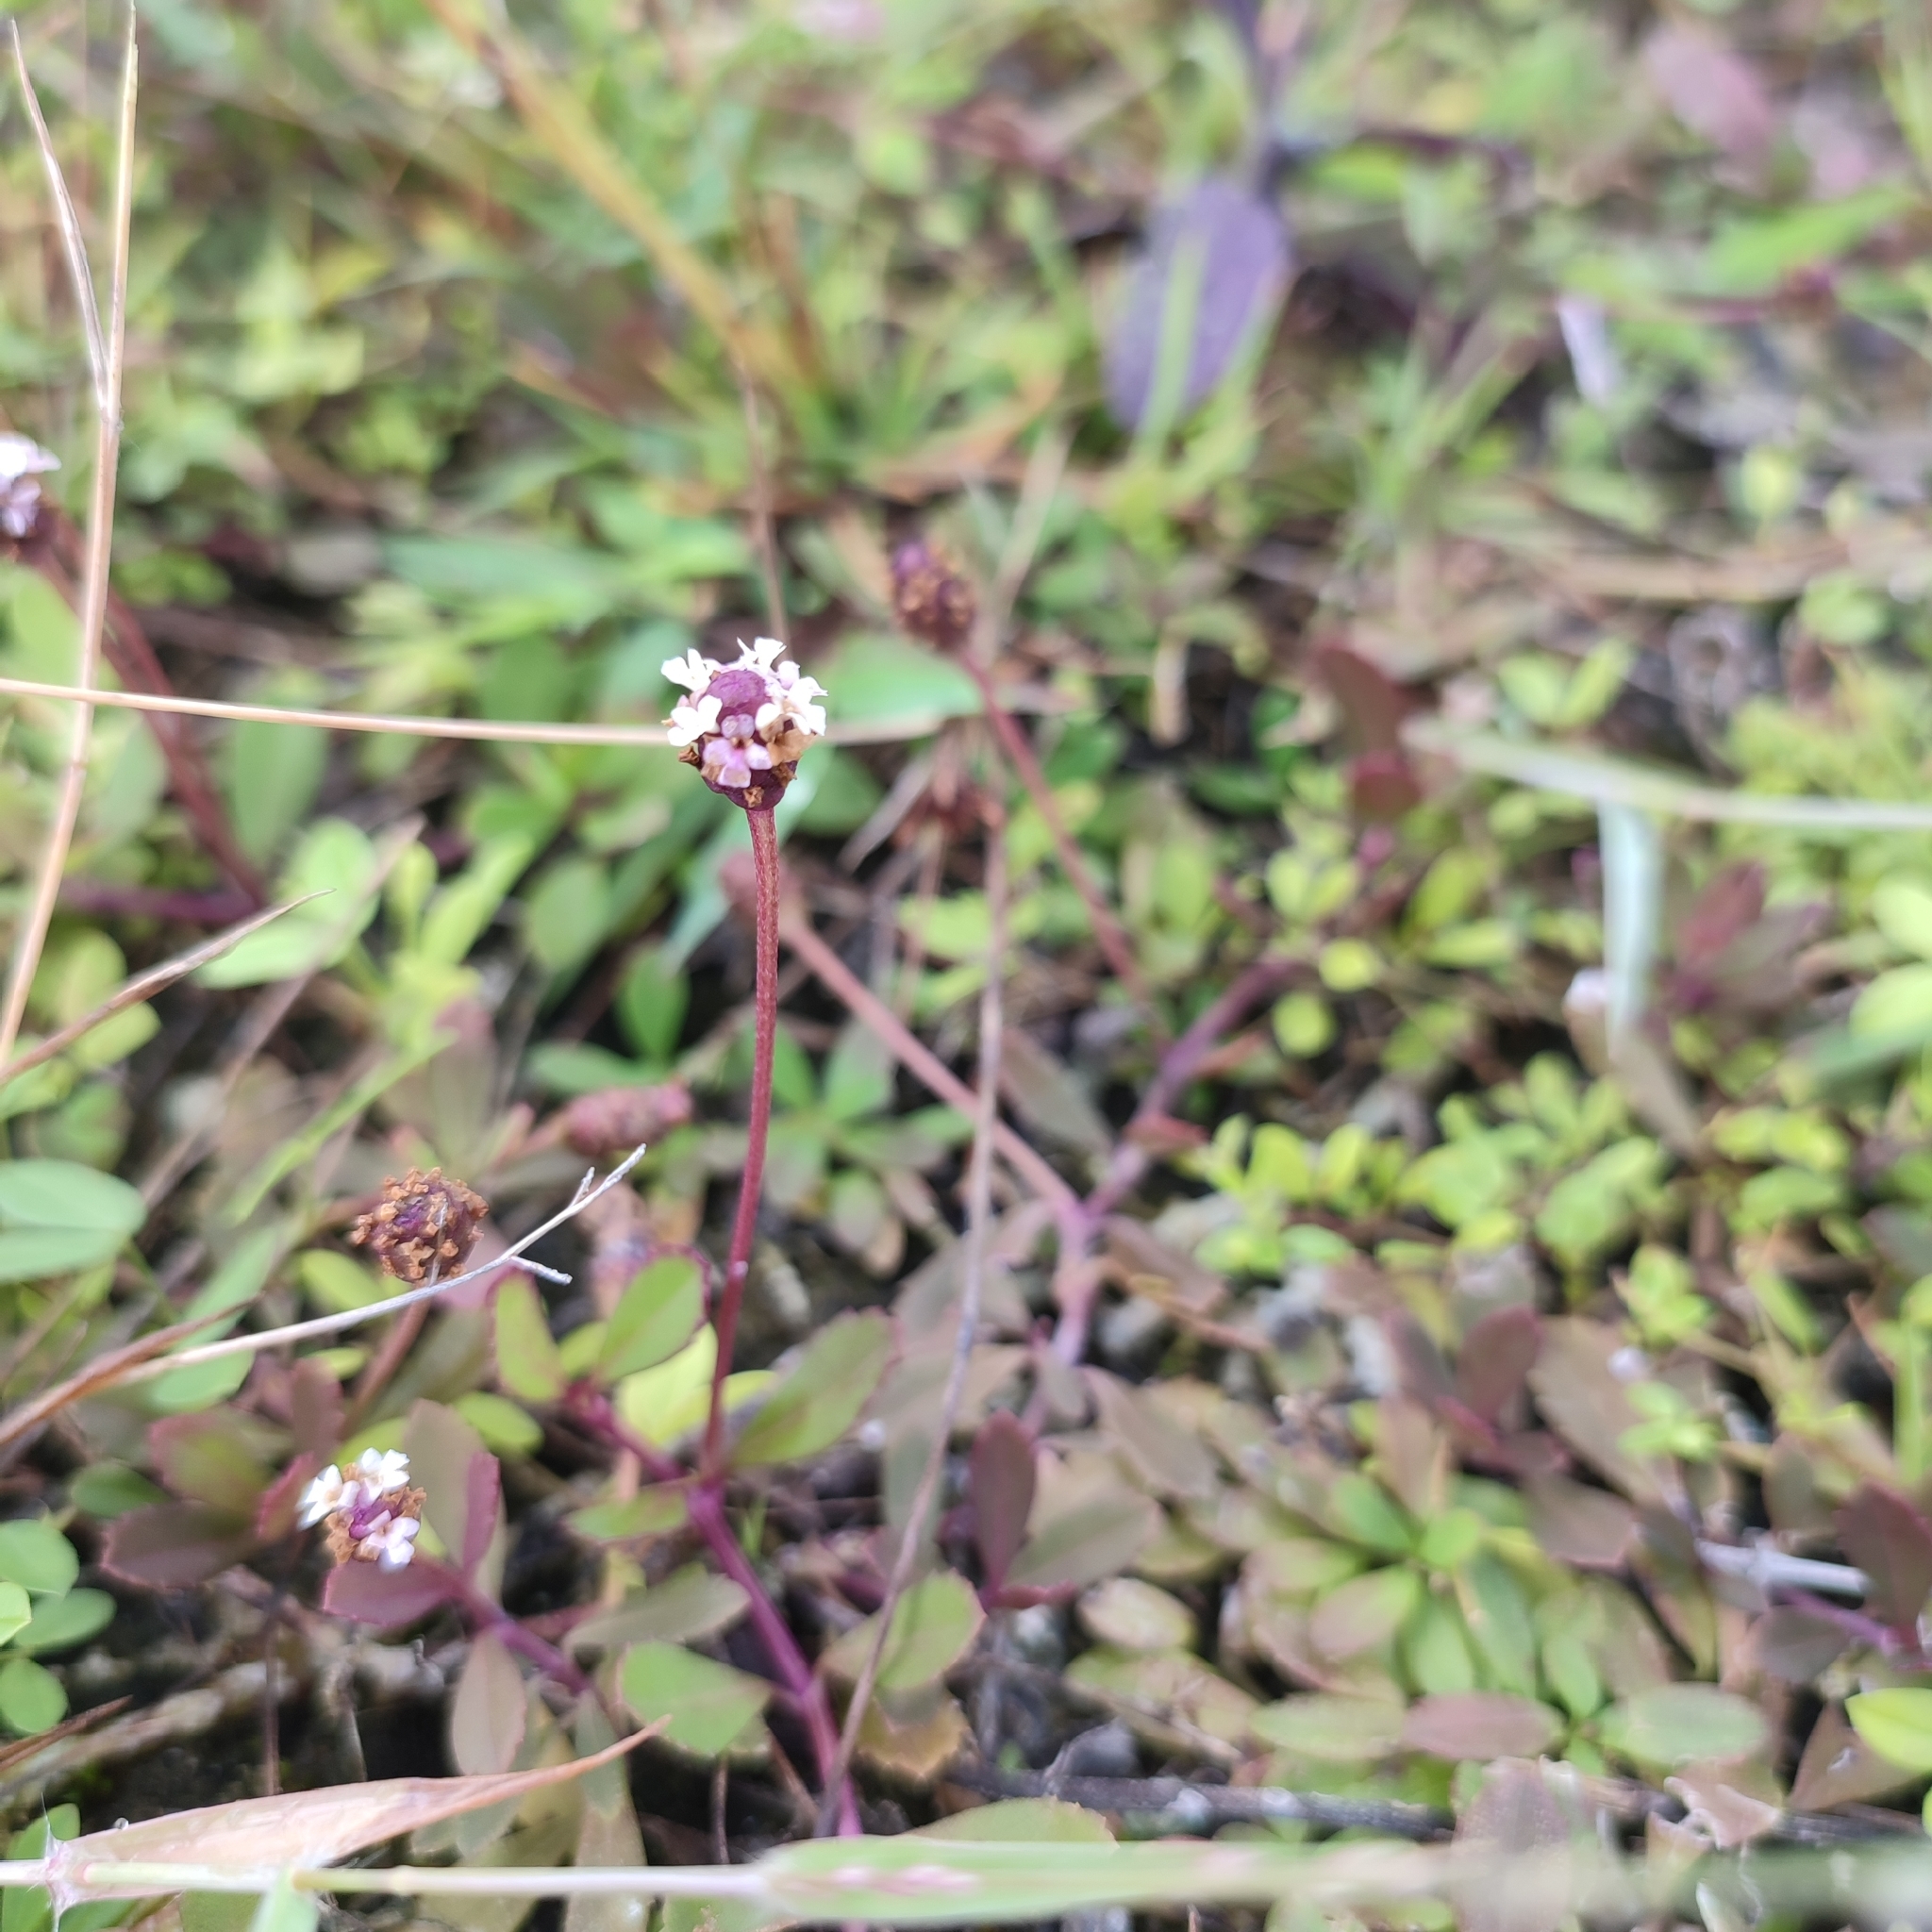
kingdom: Plantae
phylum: Tracheophyta
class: Magnoliopsida
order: Lamiales
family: Verbenaceae
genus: Phyla
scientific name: Phyla nodiflora
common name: Frogfruit
